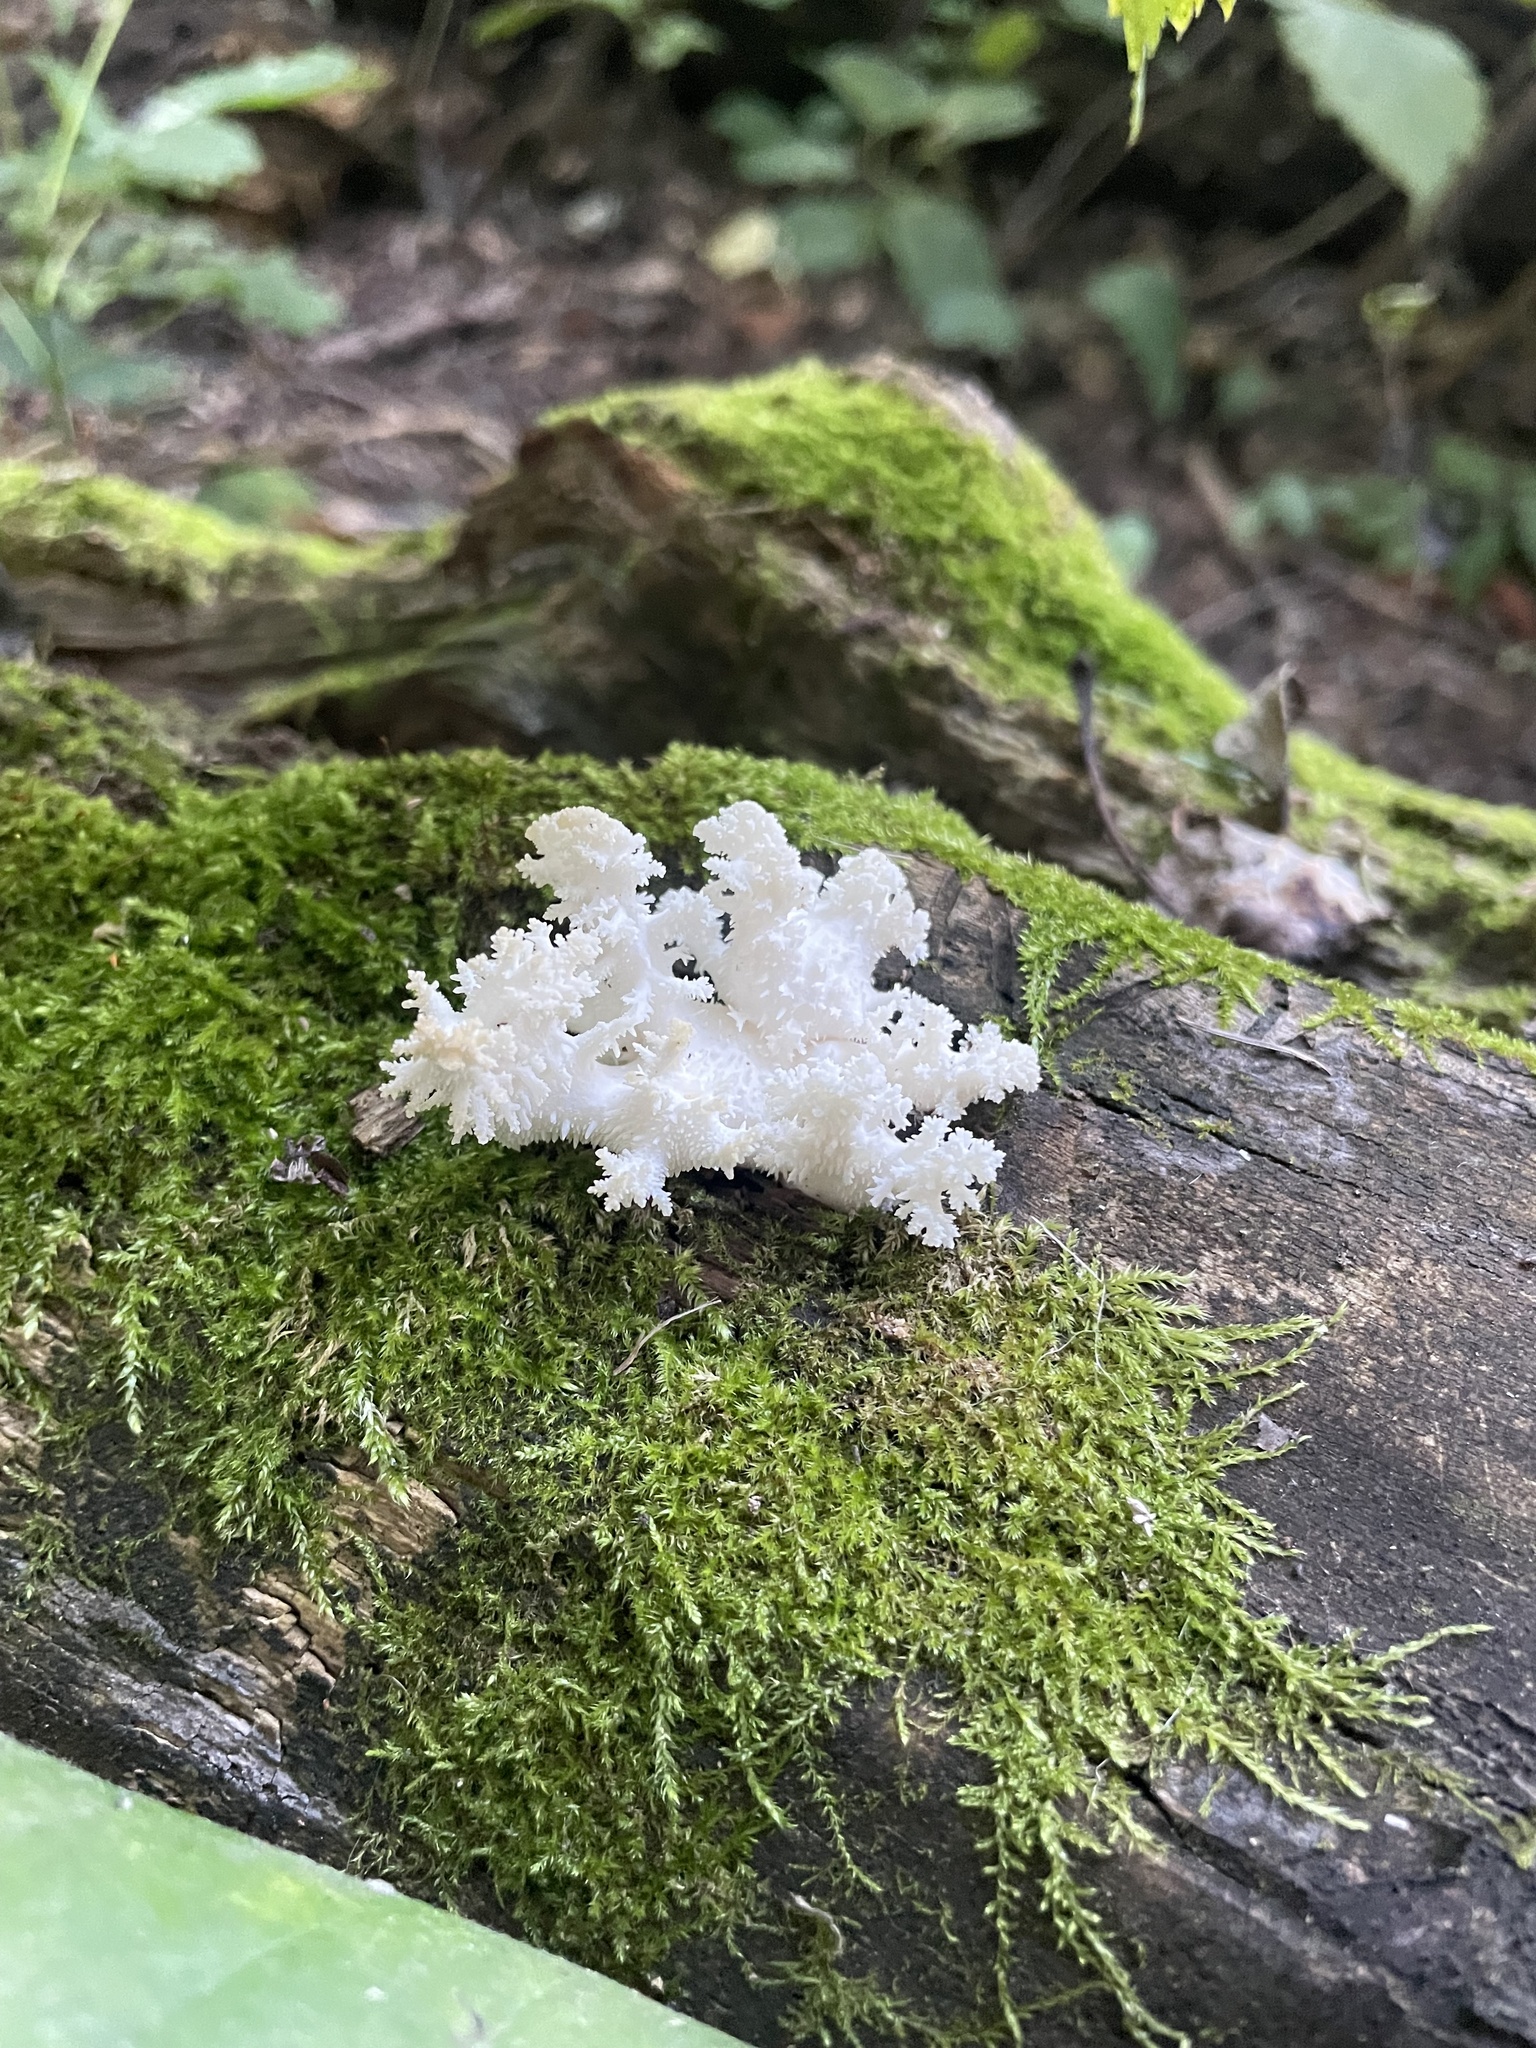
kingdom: Fungi
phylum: Basidiomycota
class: Agaricomycetes
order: Russulales
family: Hericiaceae
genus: Hericium
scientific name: Hericium coralloides
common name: Coral tooth
